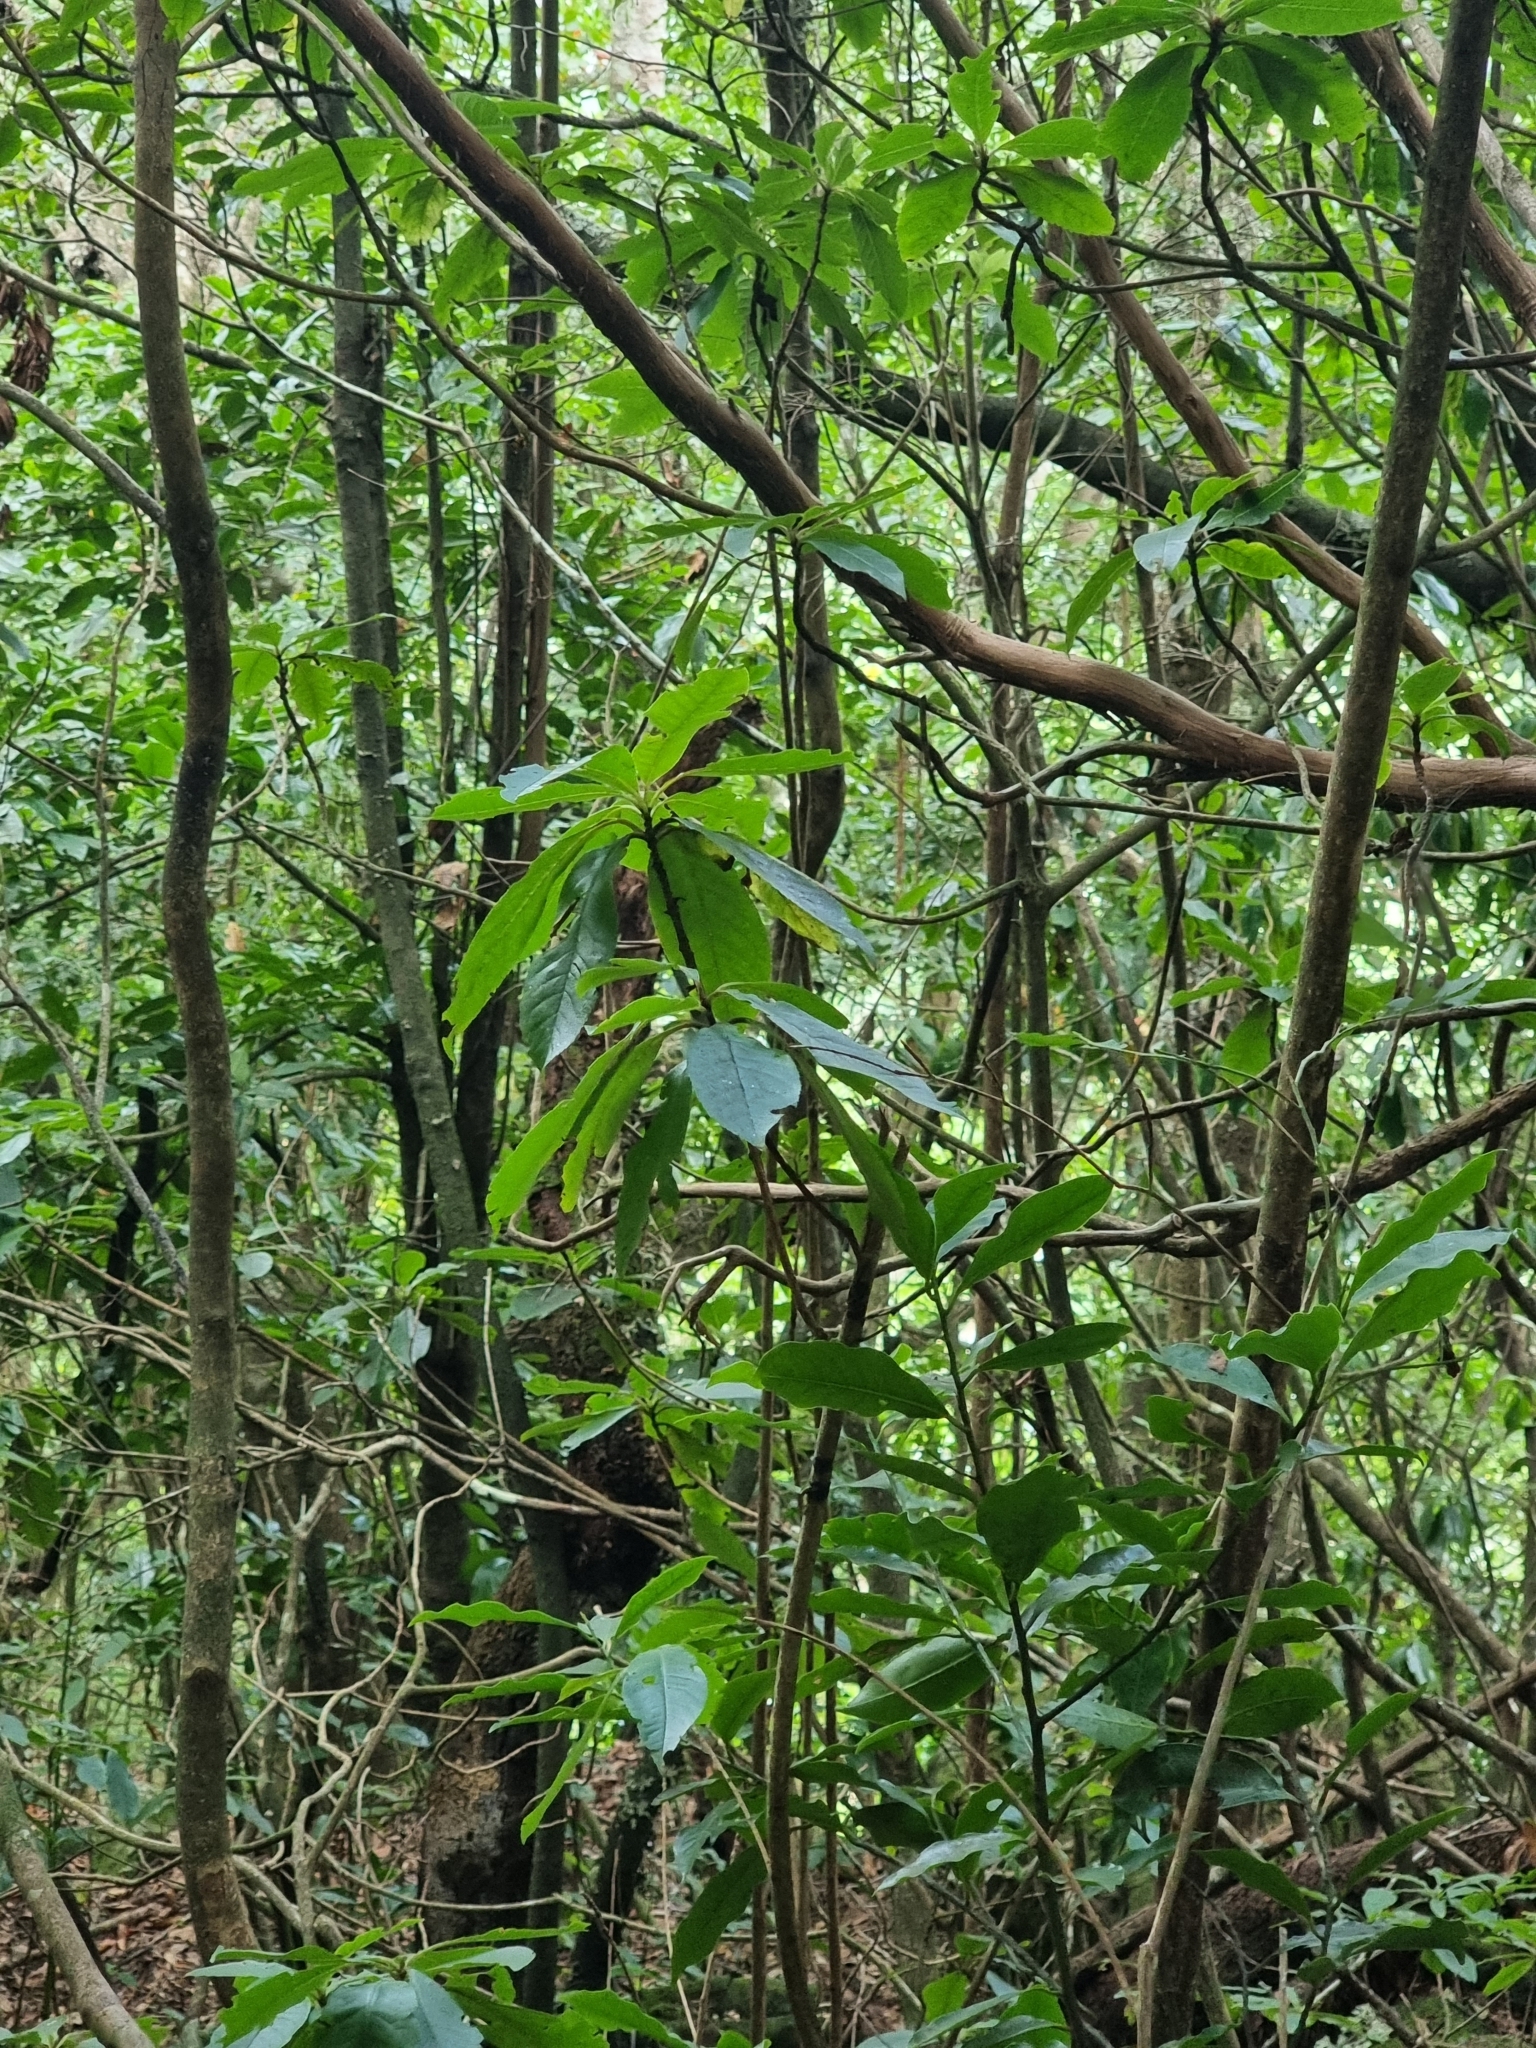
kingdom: Plantae
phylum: Tracheophyta
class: Magnoliopsida
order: Ericales
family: Clethraceae
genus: Clethra
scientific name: Clethra arborea
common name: Lily-of-the-valley-tree
